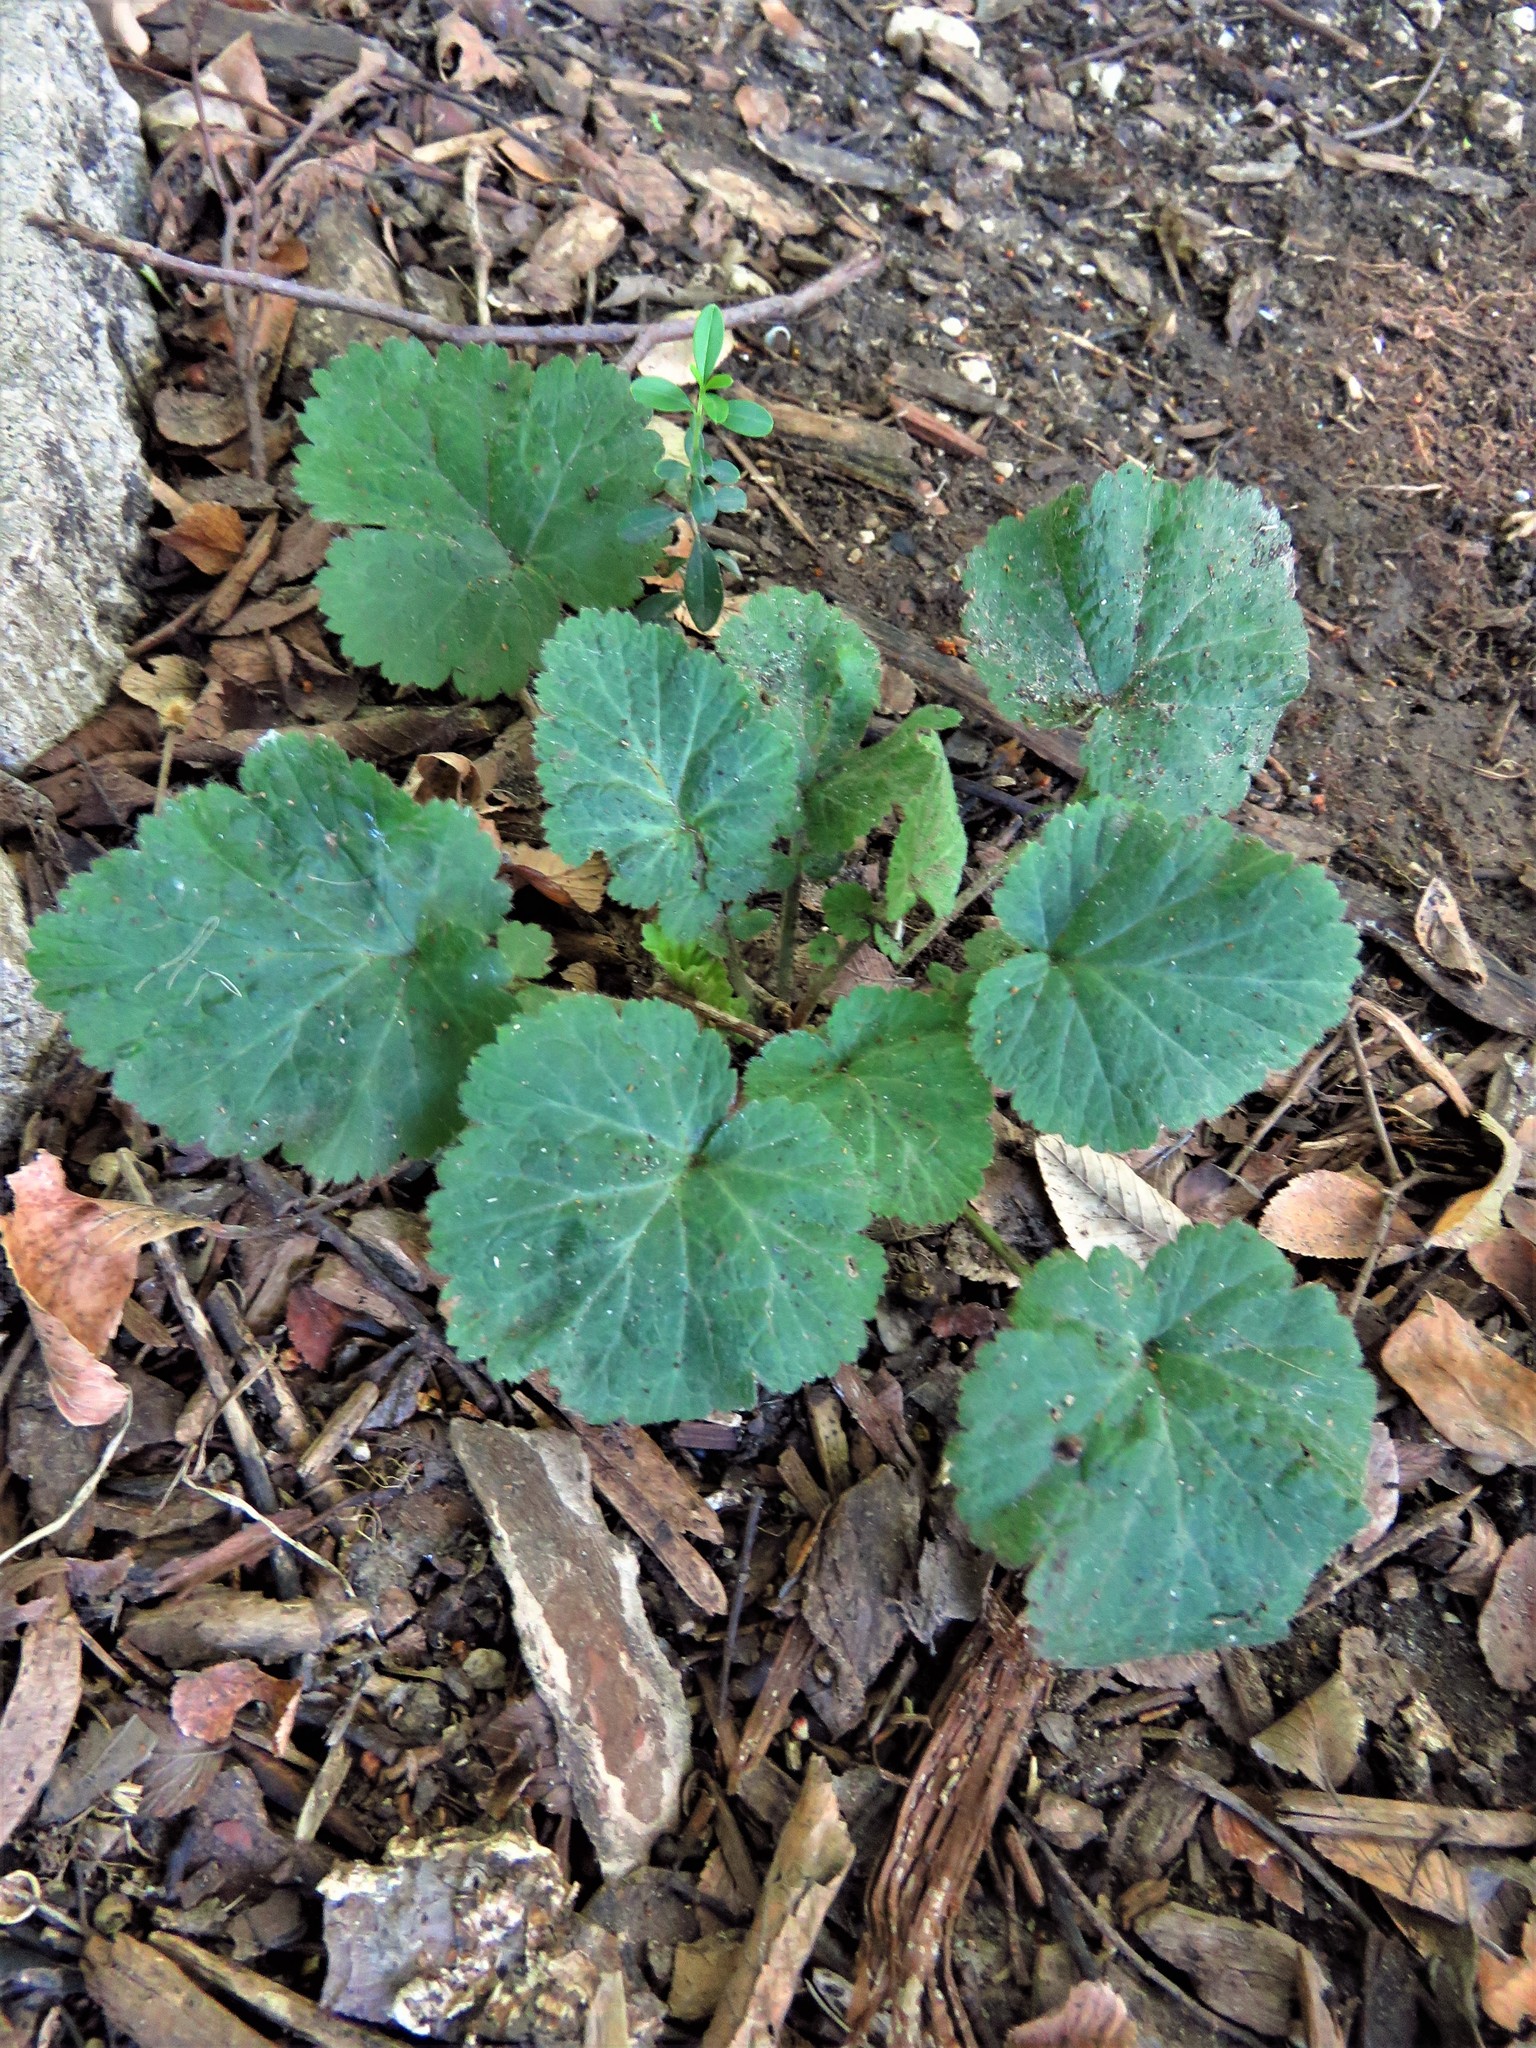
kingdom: Plantae
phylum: Tracheophyta
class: Magnoliopsida
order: Rosales
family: Rosaceae
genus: Geum
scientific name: Geum canadense
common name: White avens
